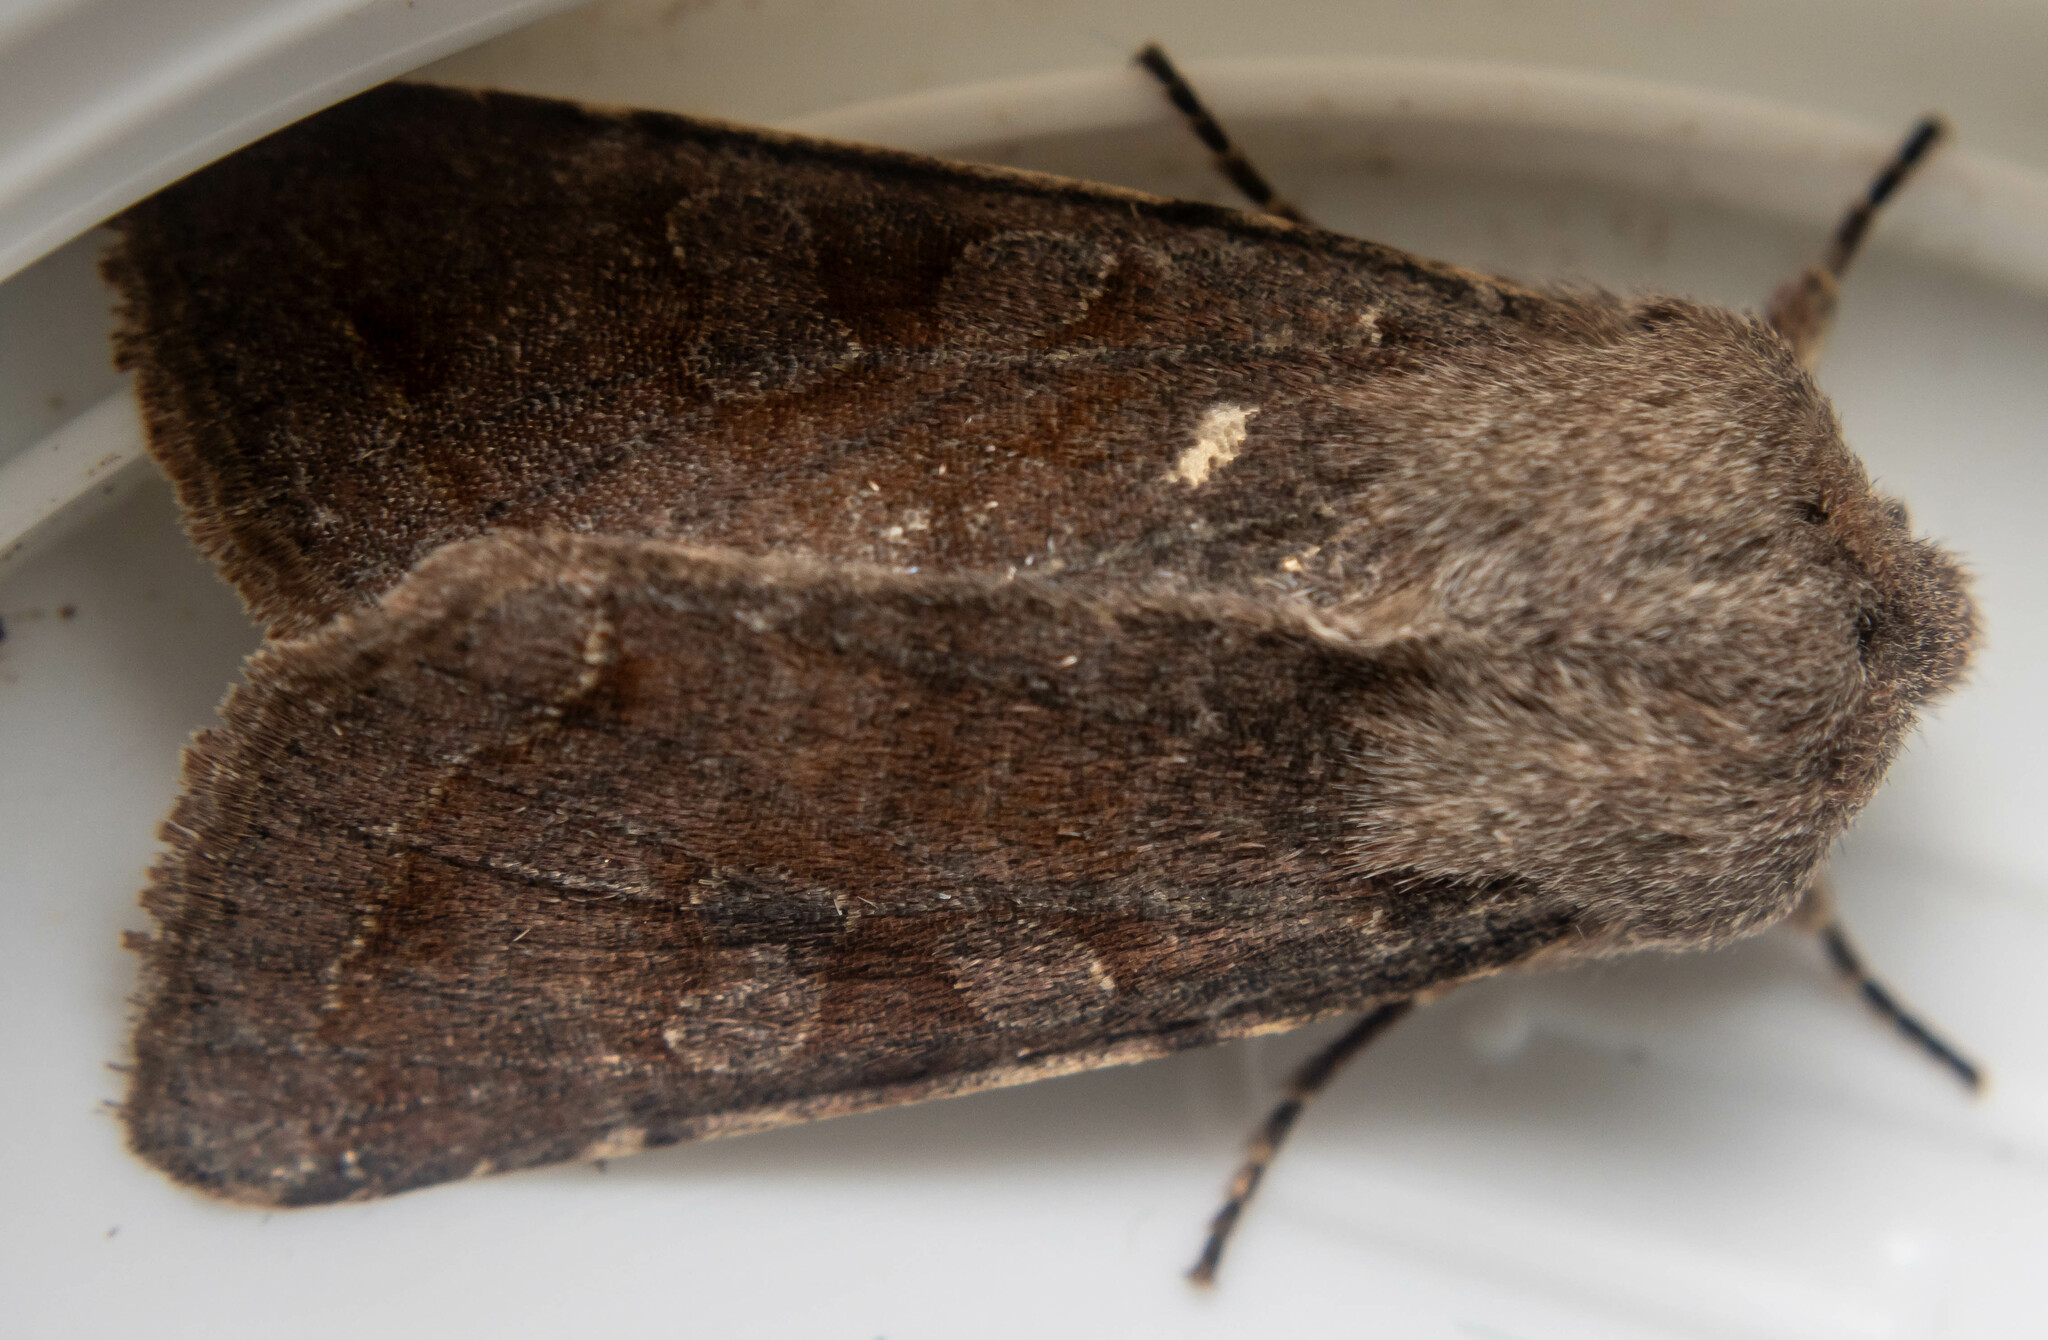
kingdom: Animalia
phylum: Arthropoda
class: Insecta
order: Lepidoptera
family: Noctuidae
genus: Orthosia
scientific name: Orthosia incerta
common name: Clouded drab
